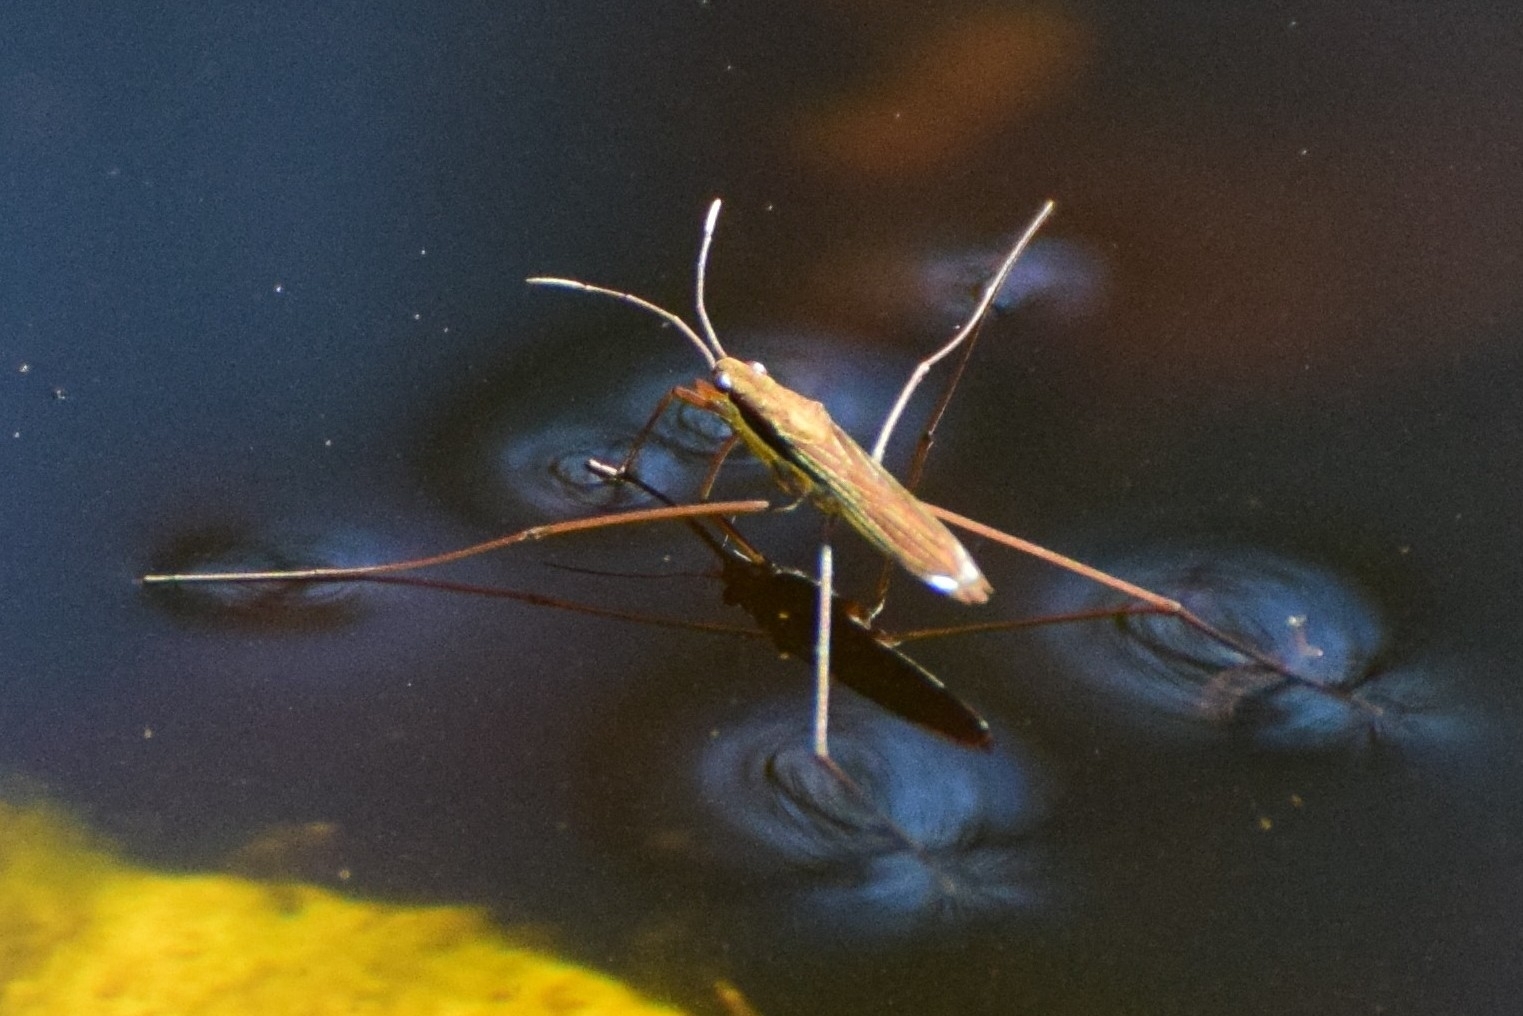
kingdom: Animalia
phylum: Arthropoda
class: Insecta
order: Hemiptera
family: Gerridae
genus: Limnoporus
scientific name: Limnoporus rufoscutellatus
